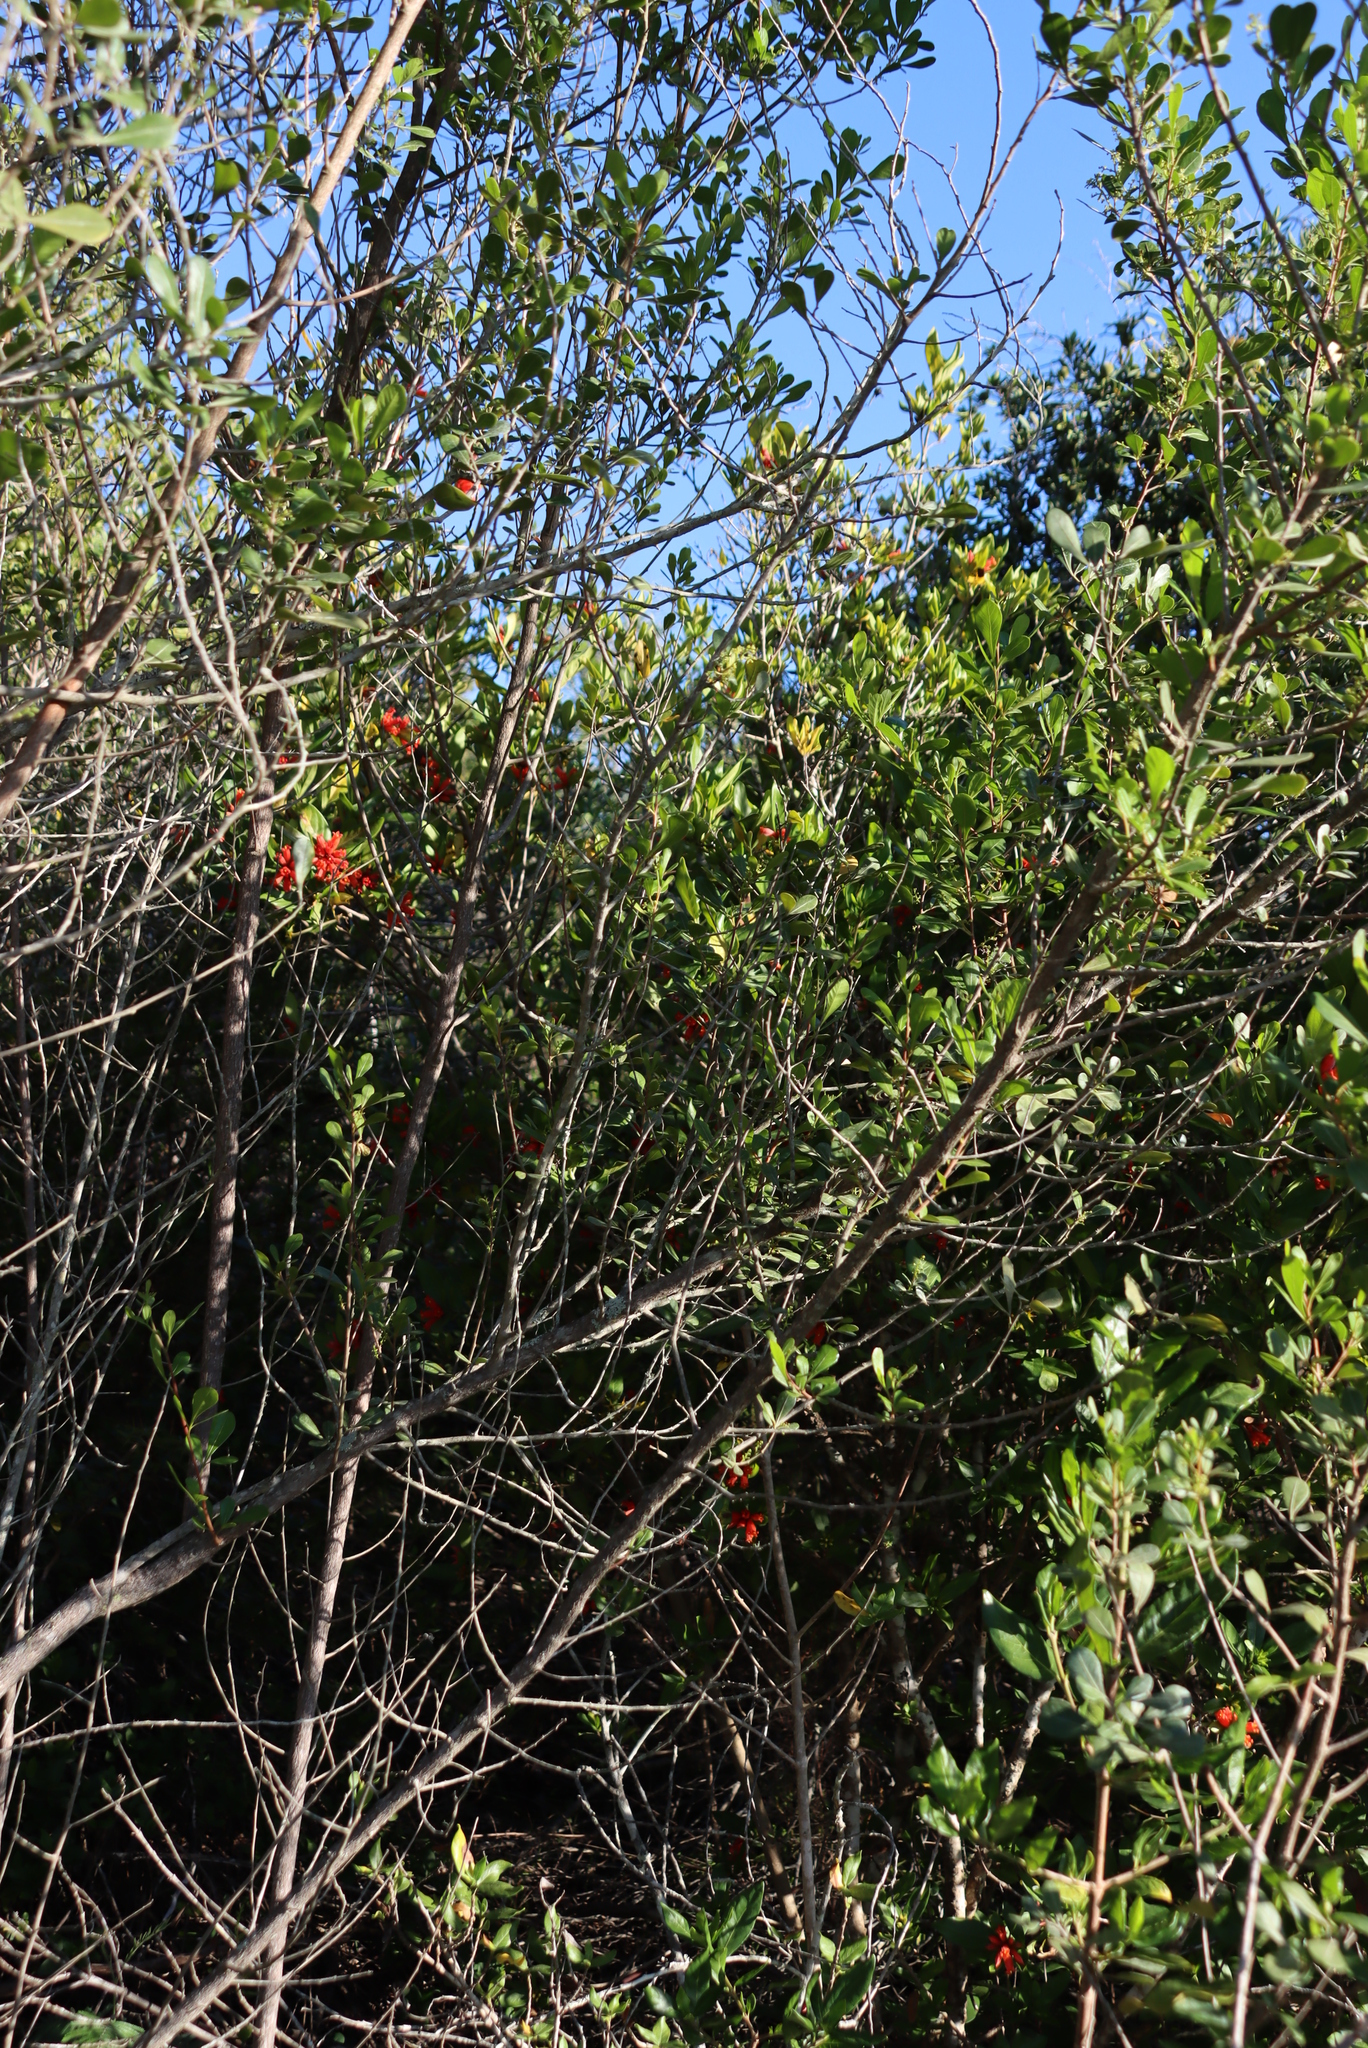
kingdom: Plantae
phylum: Tracheophyta
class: Magnoliopsida
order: Gentianales
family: Rubiaceae
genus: Burchellia
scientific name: Burchellia bubalina
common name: Wild pomegranate
